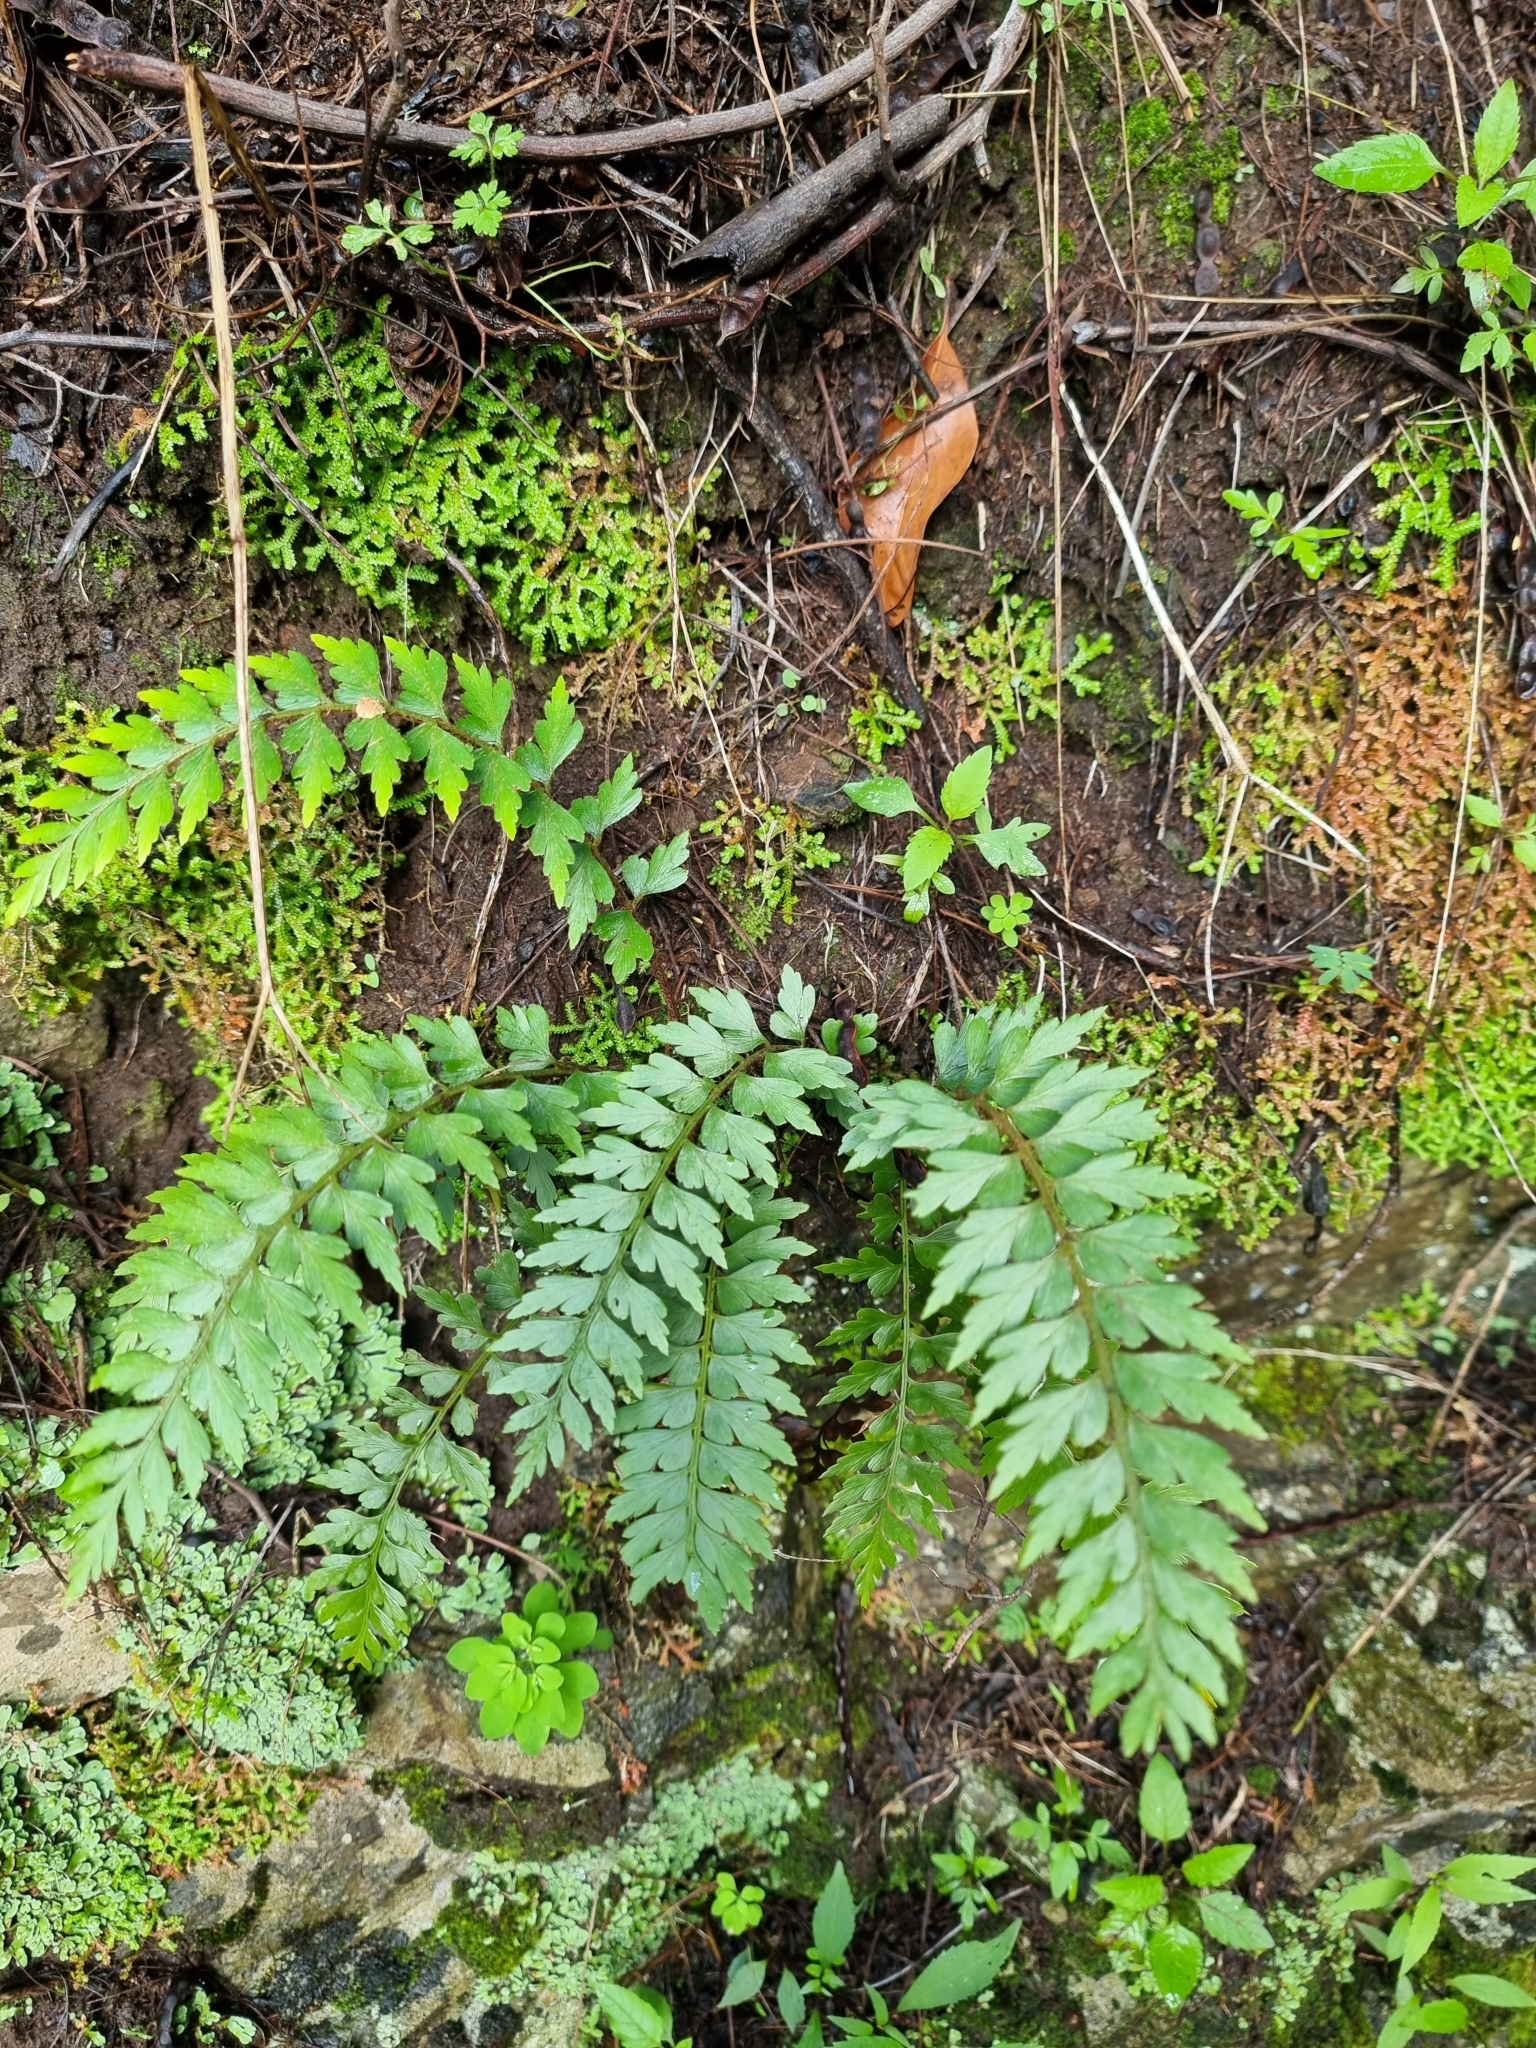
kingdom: Plantae
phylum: Tracheophyta
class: Polypodiopsida
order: Polypodiales
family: Aspleniaceae
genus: Asplenium
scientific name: Asplenium braithwaitei
